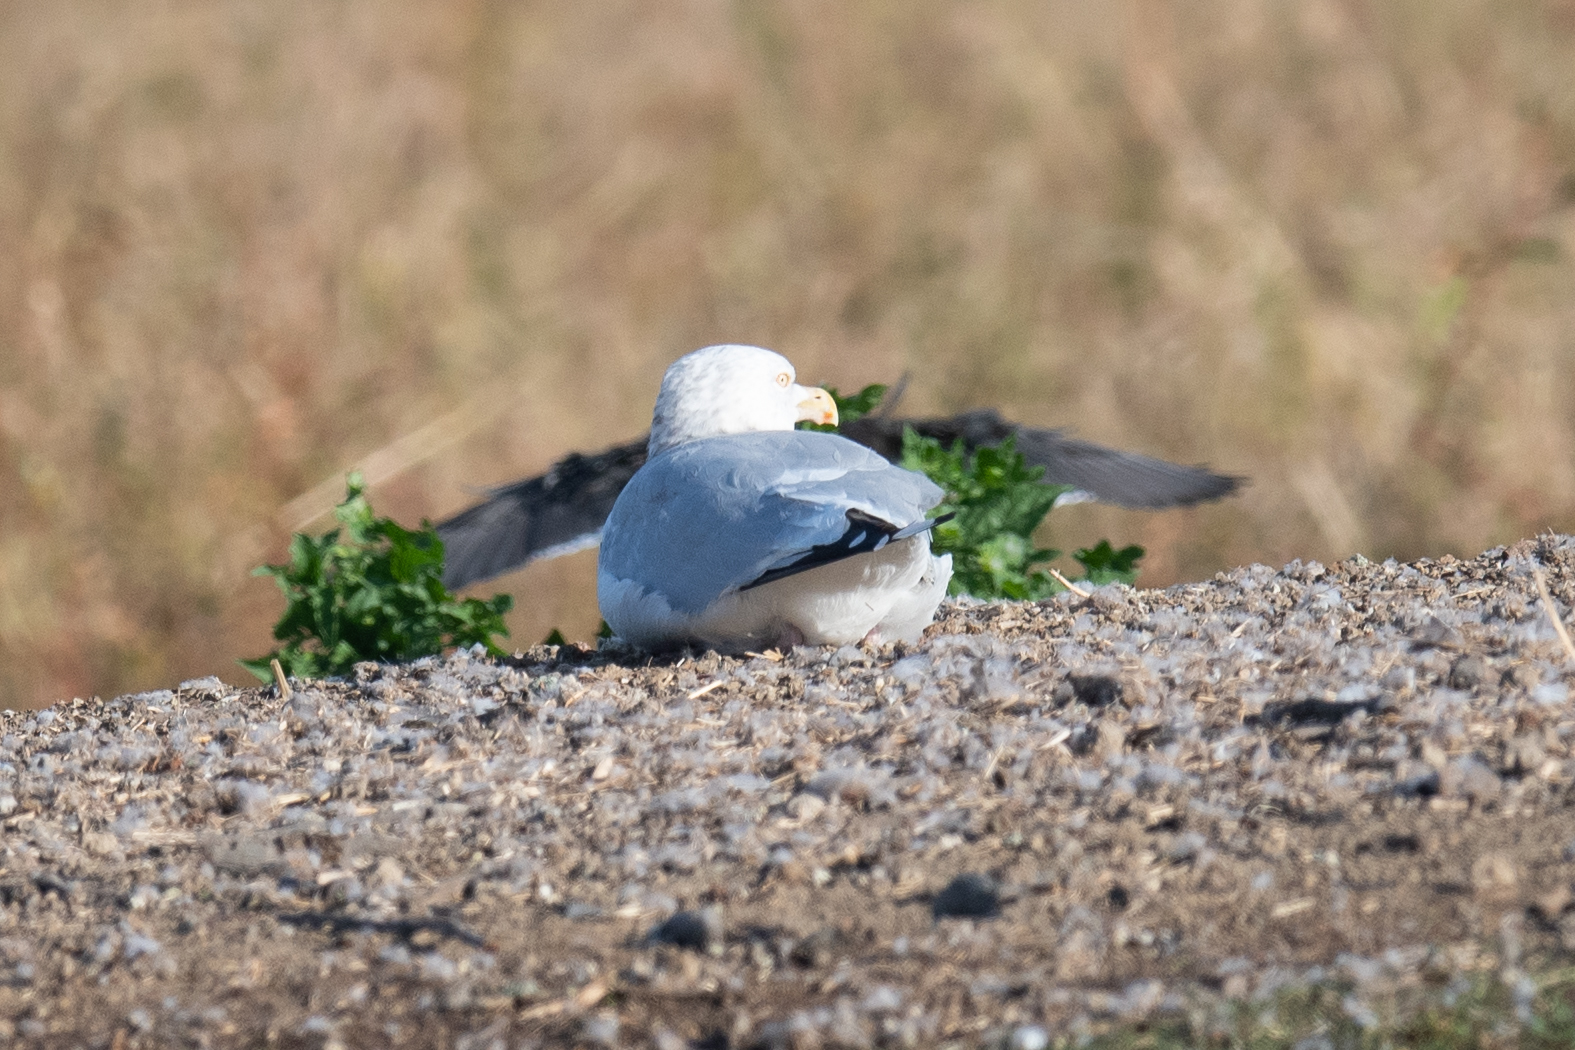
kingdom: Animalia
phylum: Chordata
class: Aves
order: Charadriiformes
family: Laridae
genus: Larus
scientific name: Larus argentatus
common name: Herring gull
